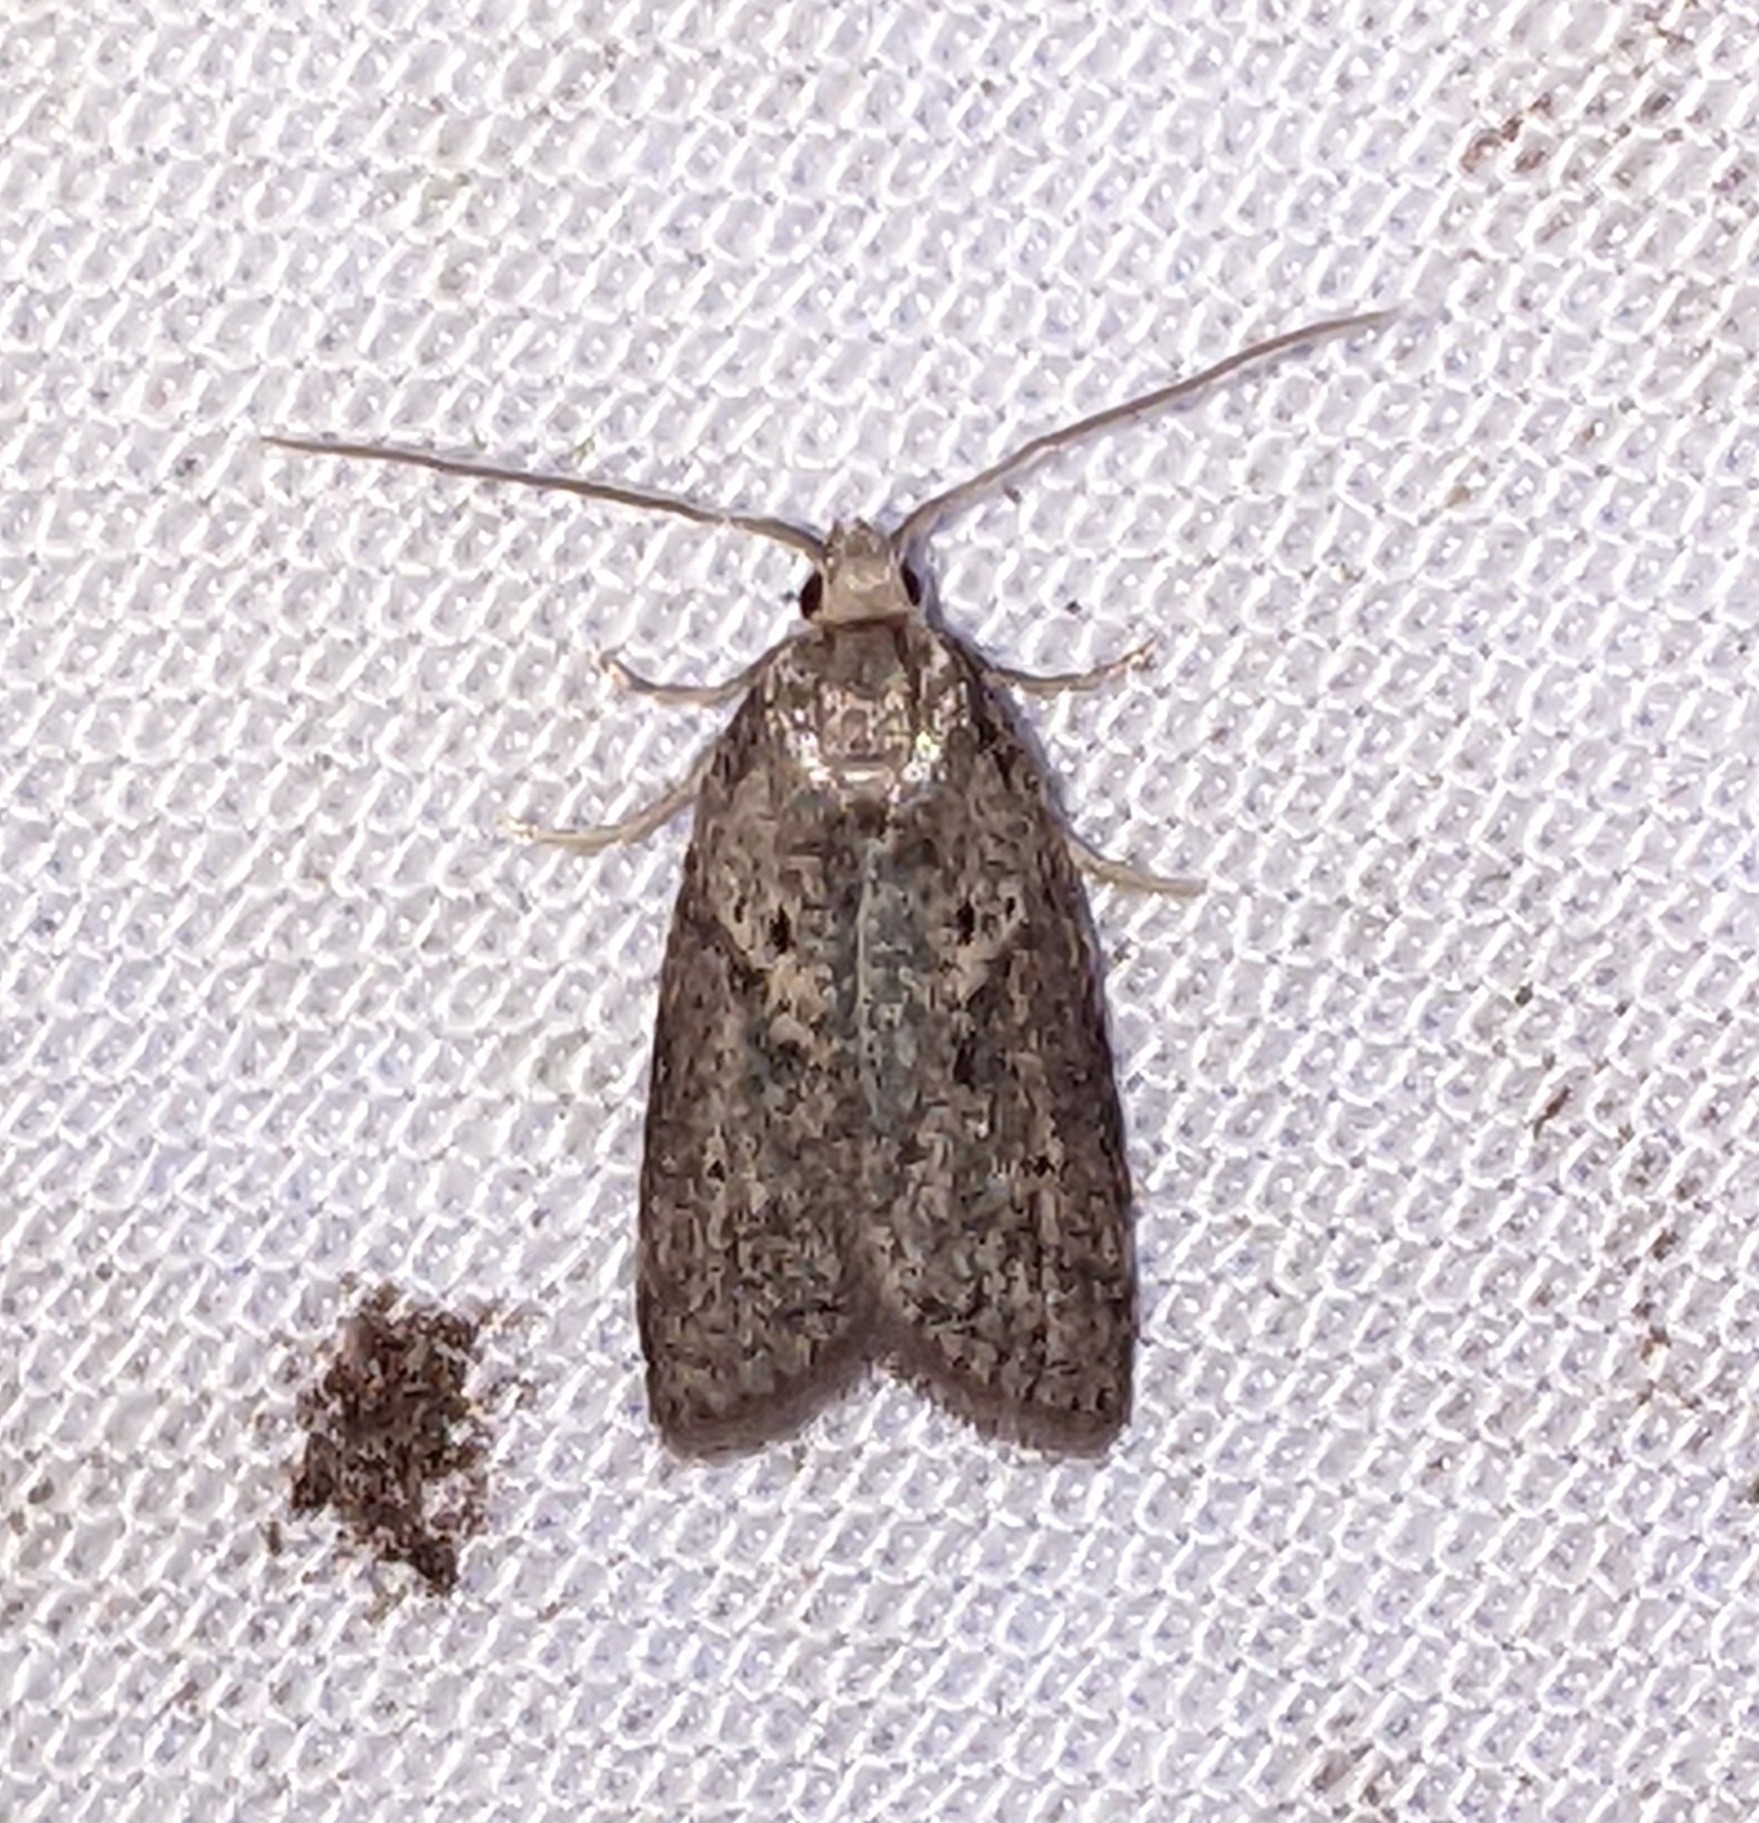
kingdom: Animalia
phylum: Arthropoda
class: Insecta
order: Lepidoptera
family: Copromorphidae
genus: Lotisma
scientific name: Lotisma trigonana
